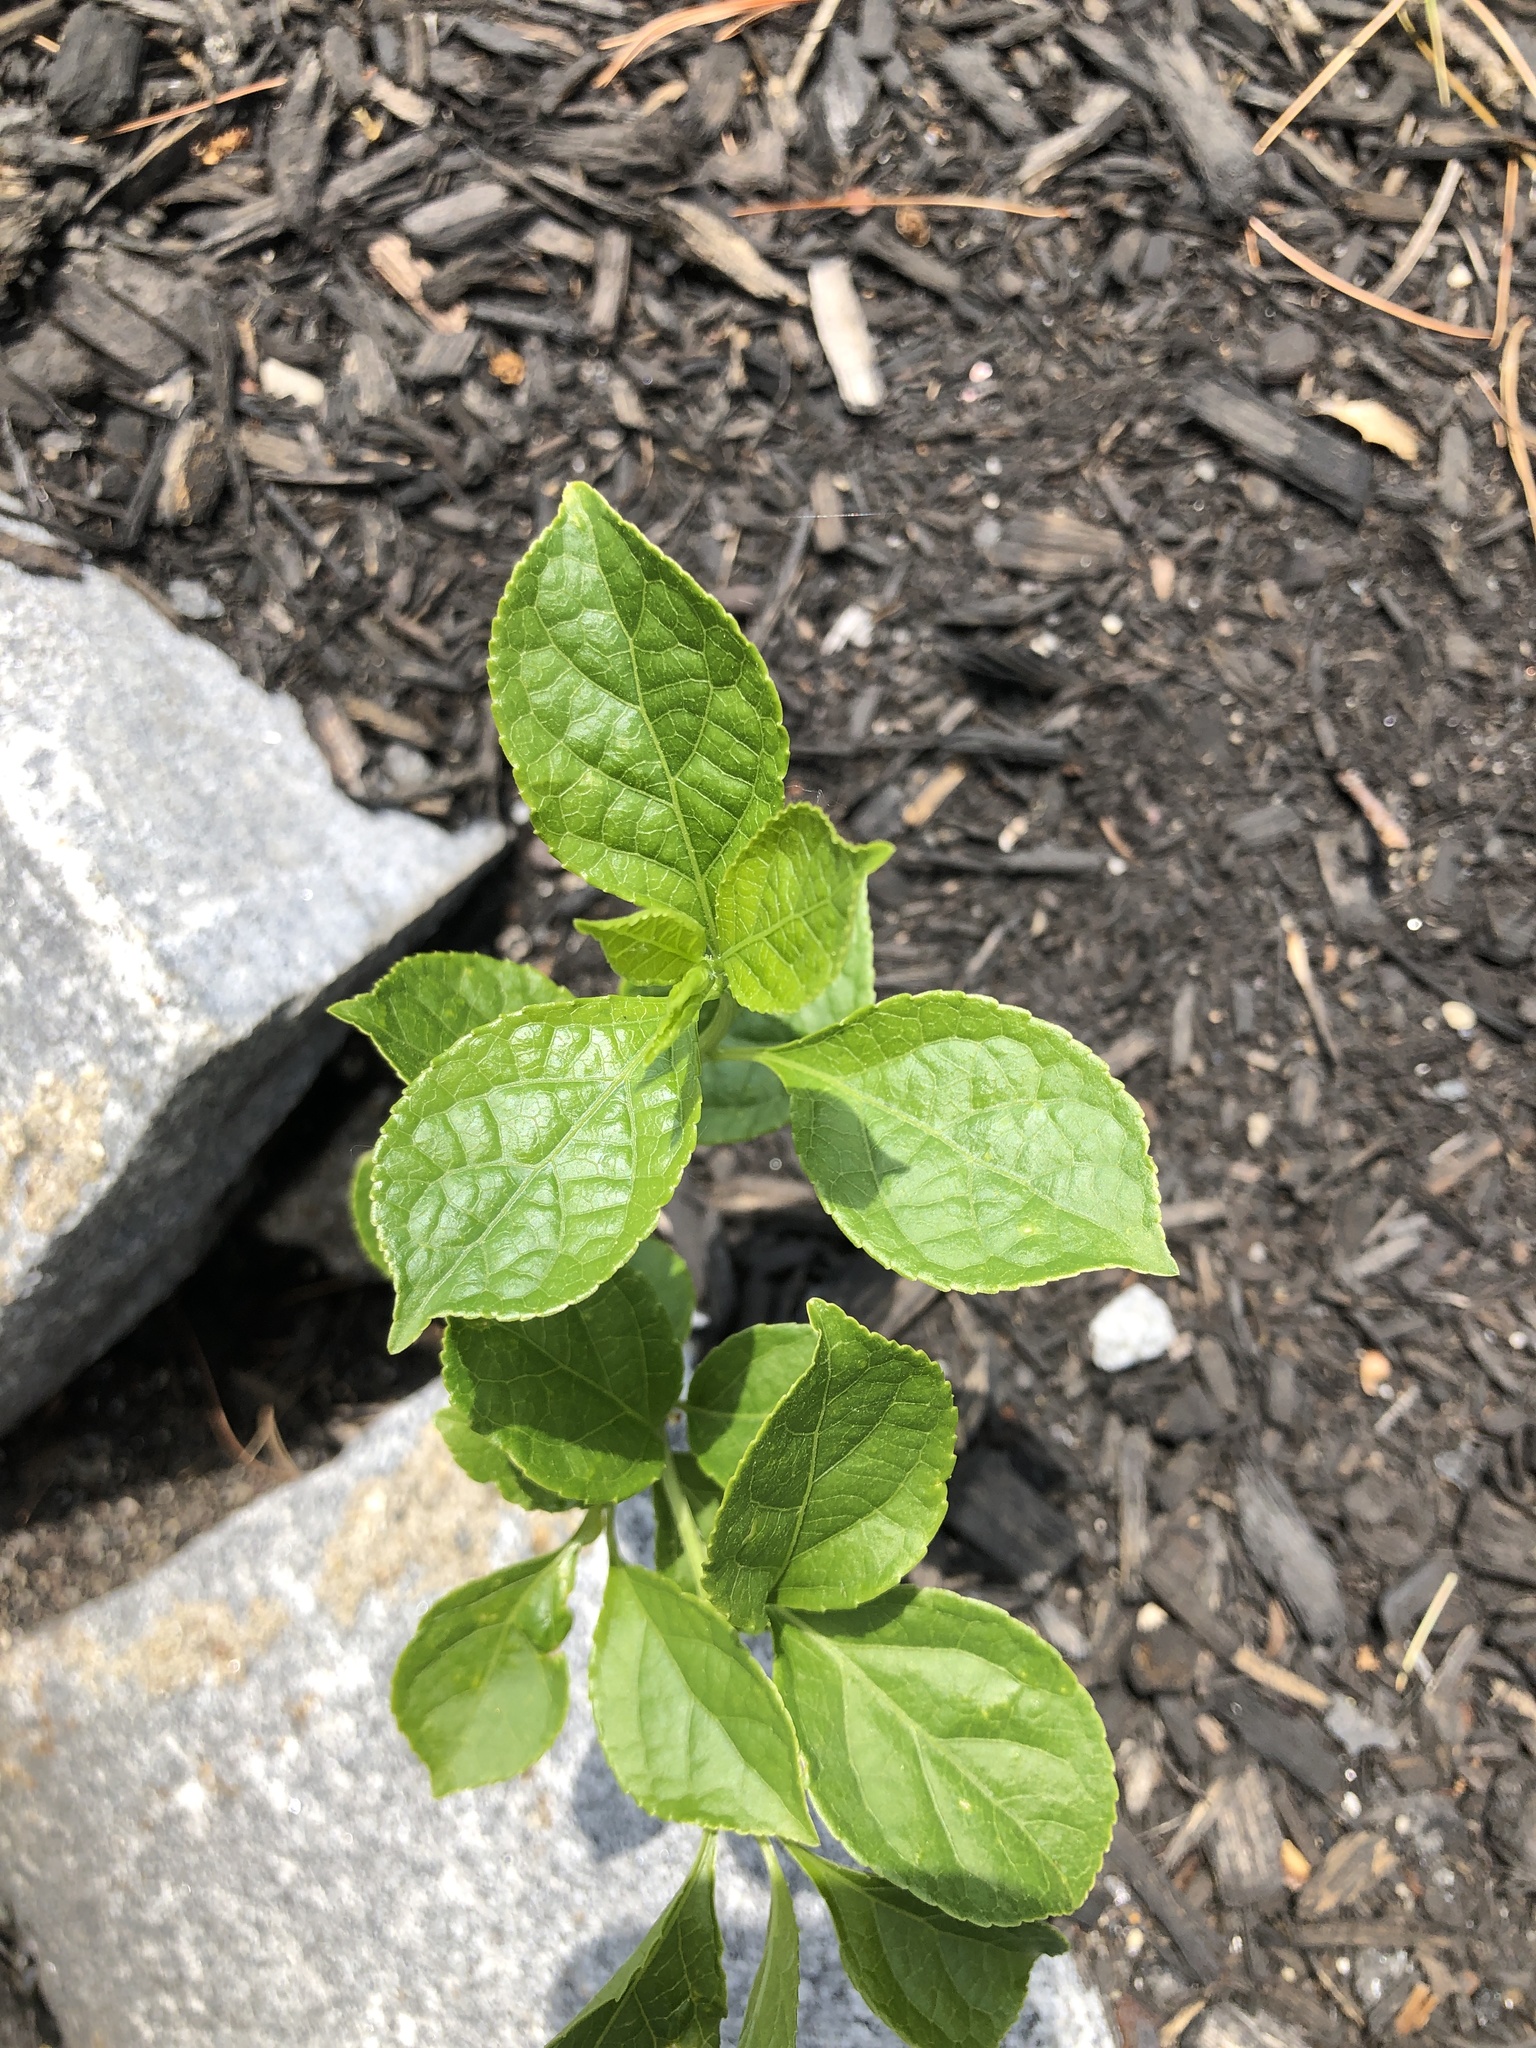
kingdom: Plantae
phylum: Tracheophyta
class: Magnoliopsida
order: Celastrales
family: Celastraceae
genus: Celastrus
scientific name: Celastrus orbiculatus
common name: Oriental bittersweet
